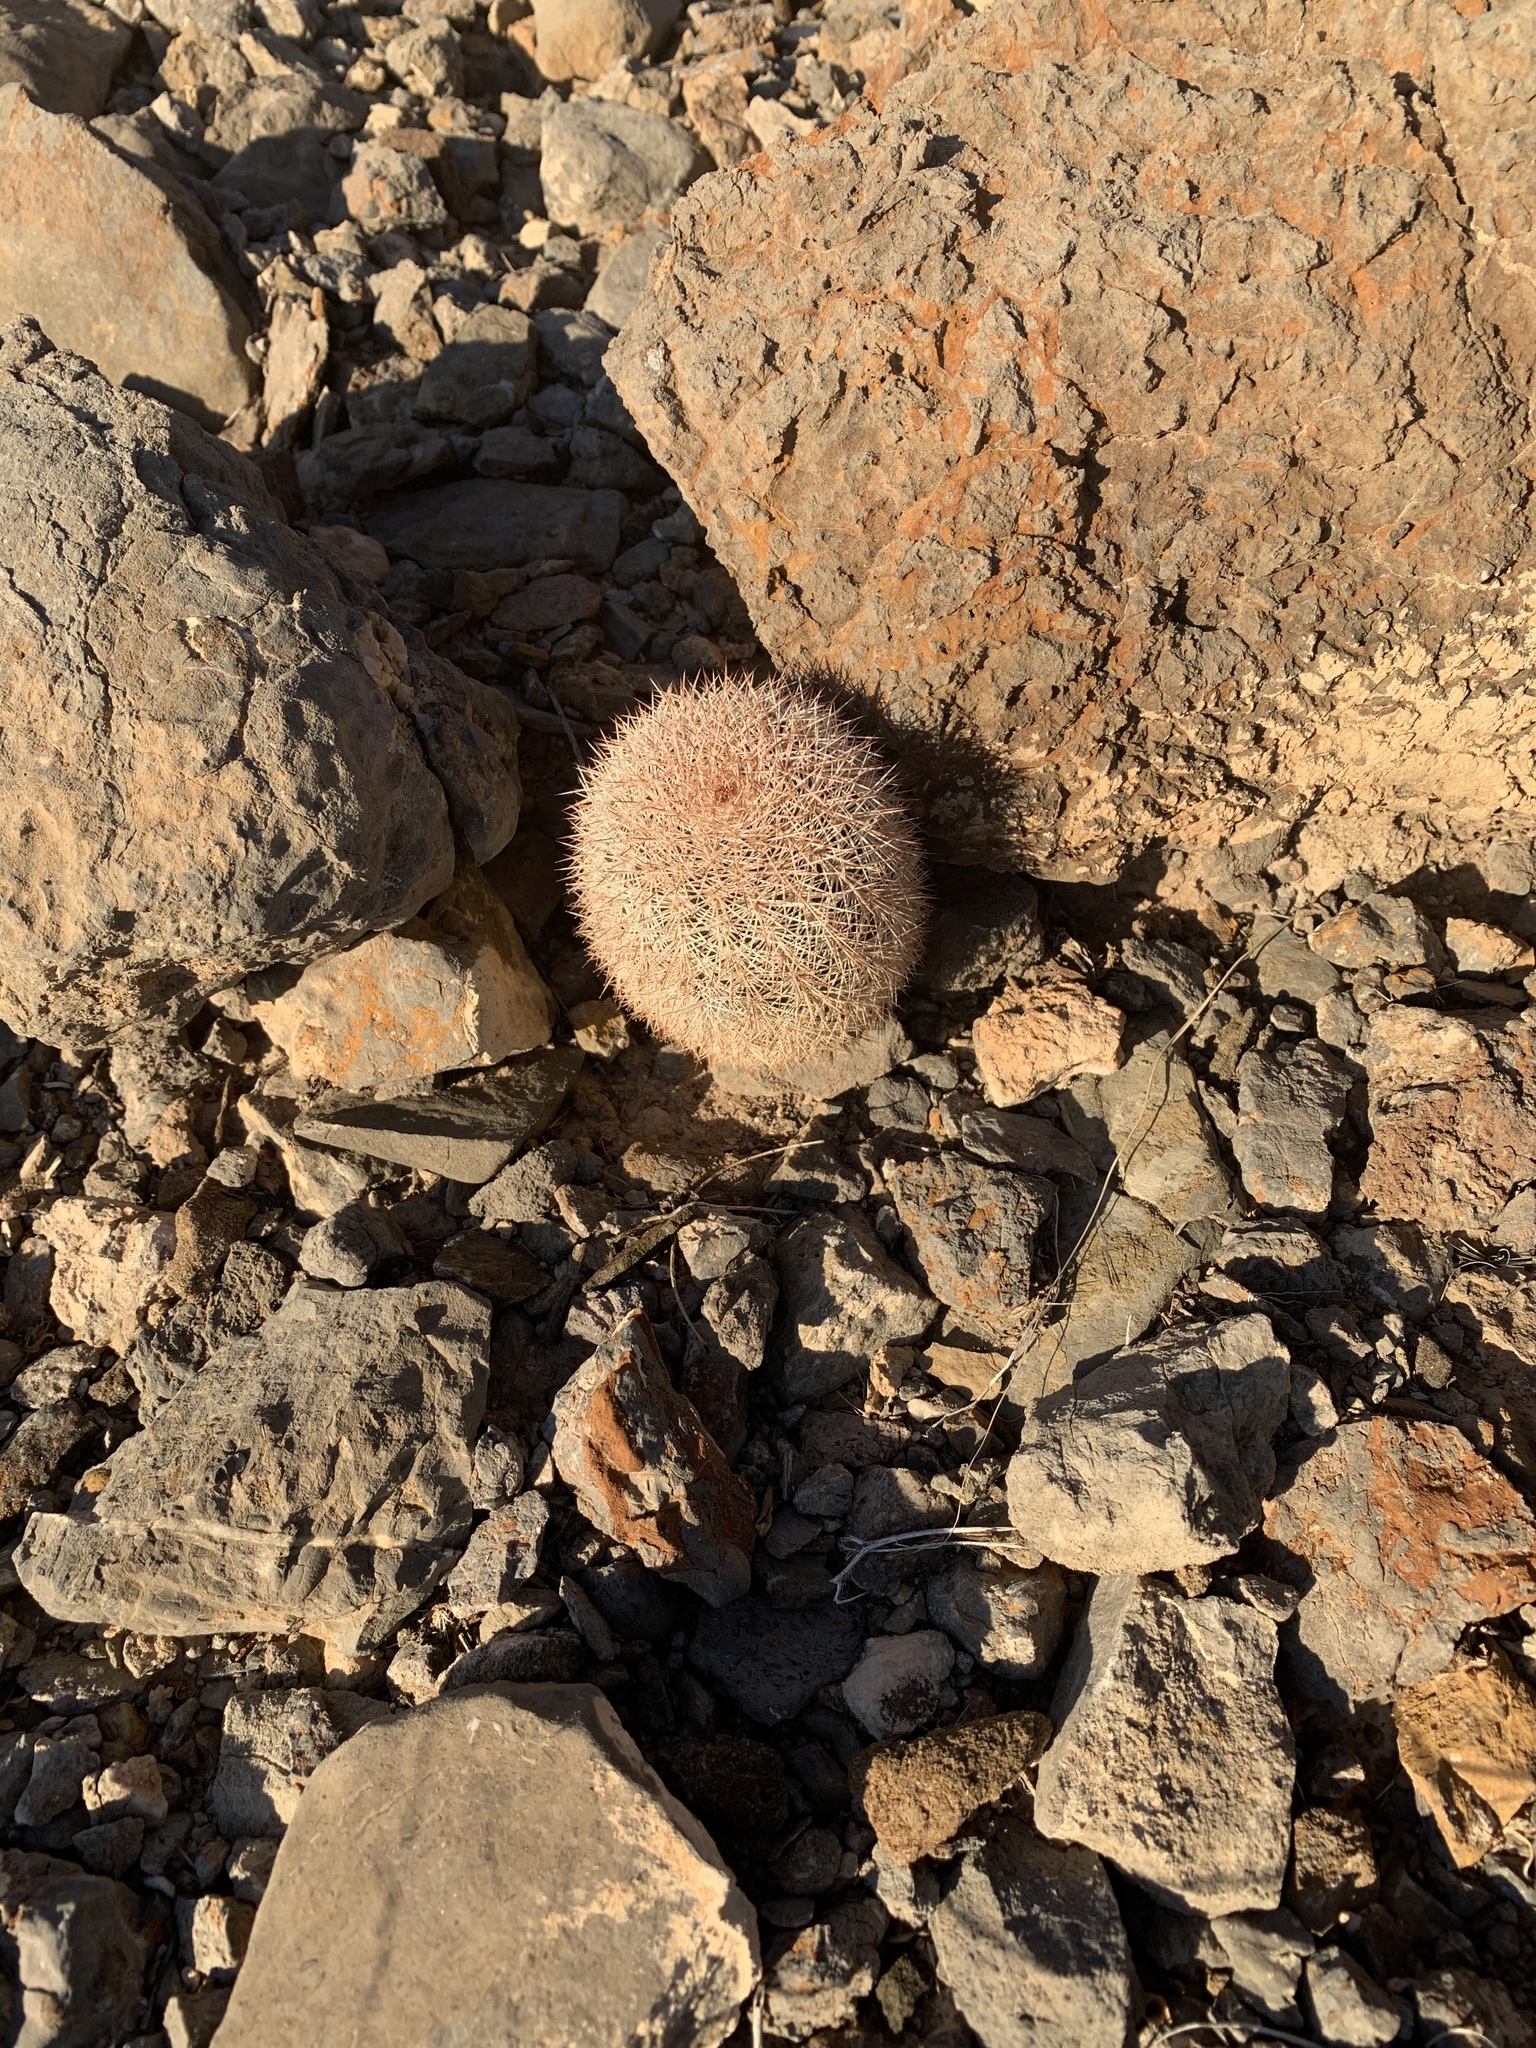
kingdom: Plantae
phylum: Tracheophyta
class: Magnoliopsida
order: Caryophyllales
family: Cactaceae
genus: Echinocereus
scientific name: Echinocereus dasyacanthus
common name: Spiny hedgehog cactus
